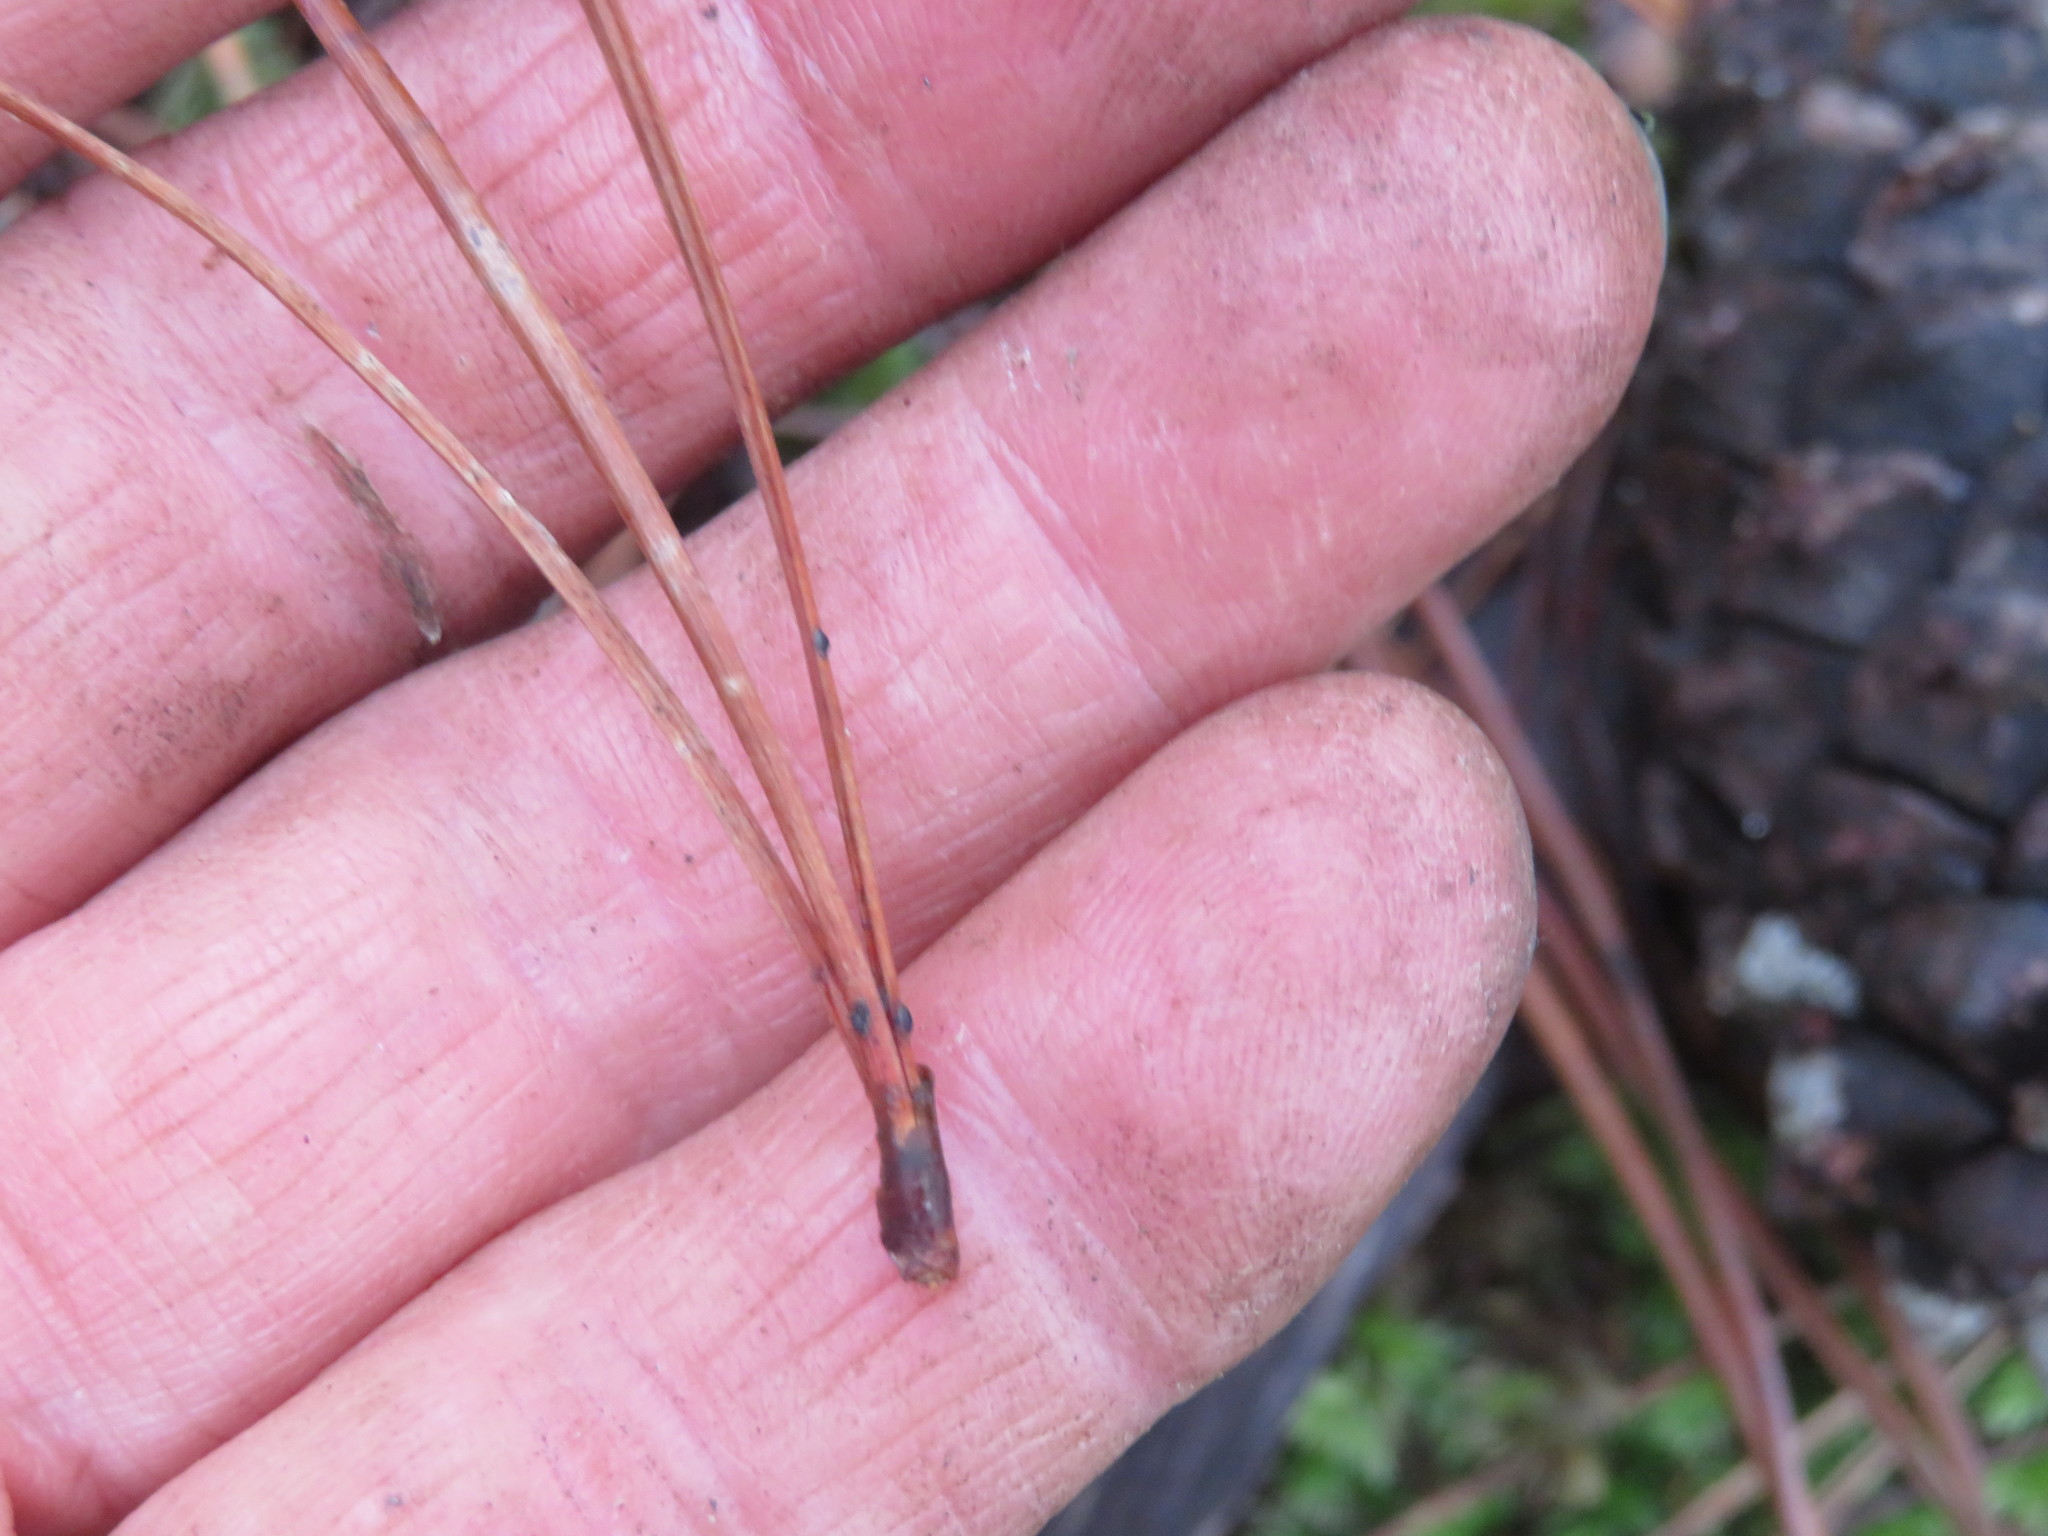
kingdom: Plantae
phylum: Tracheophyta
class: Pinopsida
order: Pinales
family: Pinaceae
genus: Pinus
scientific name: Pinus radiata
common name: Monterey pine
